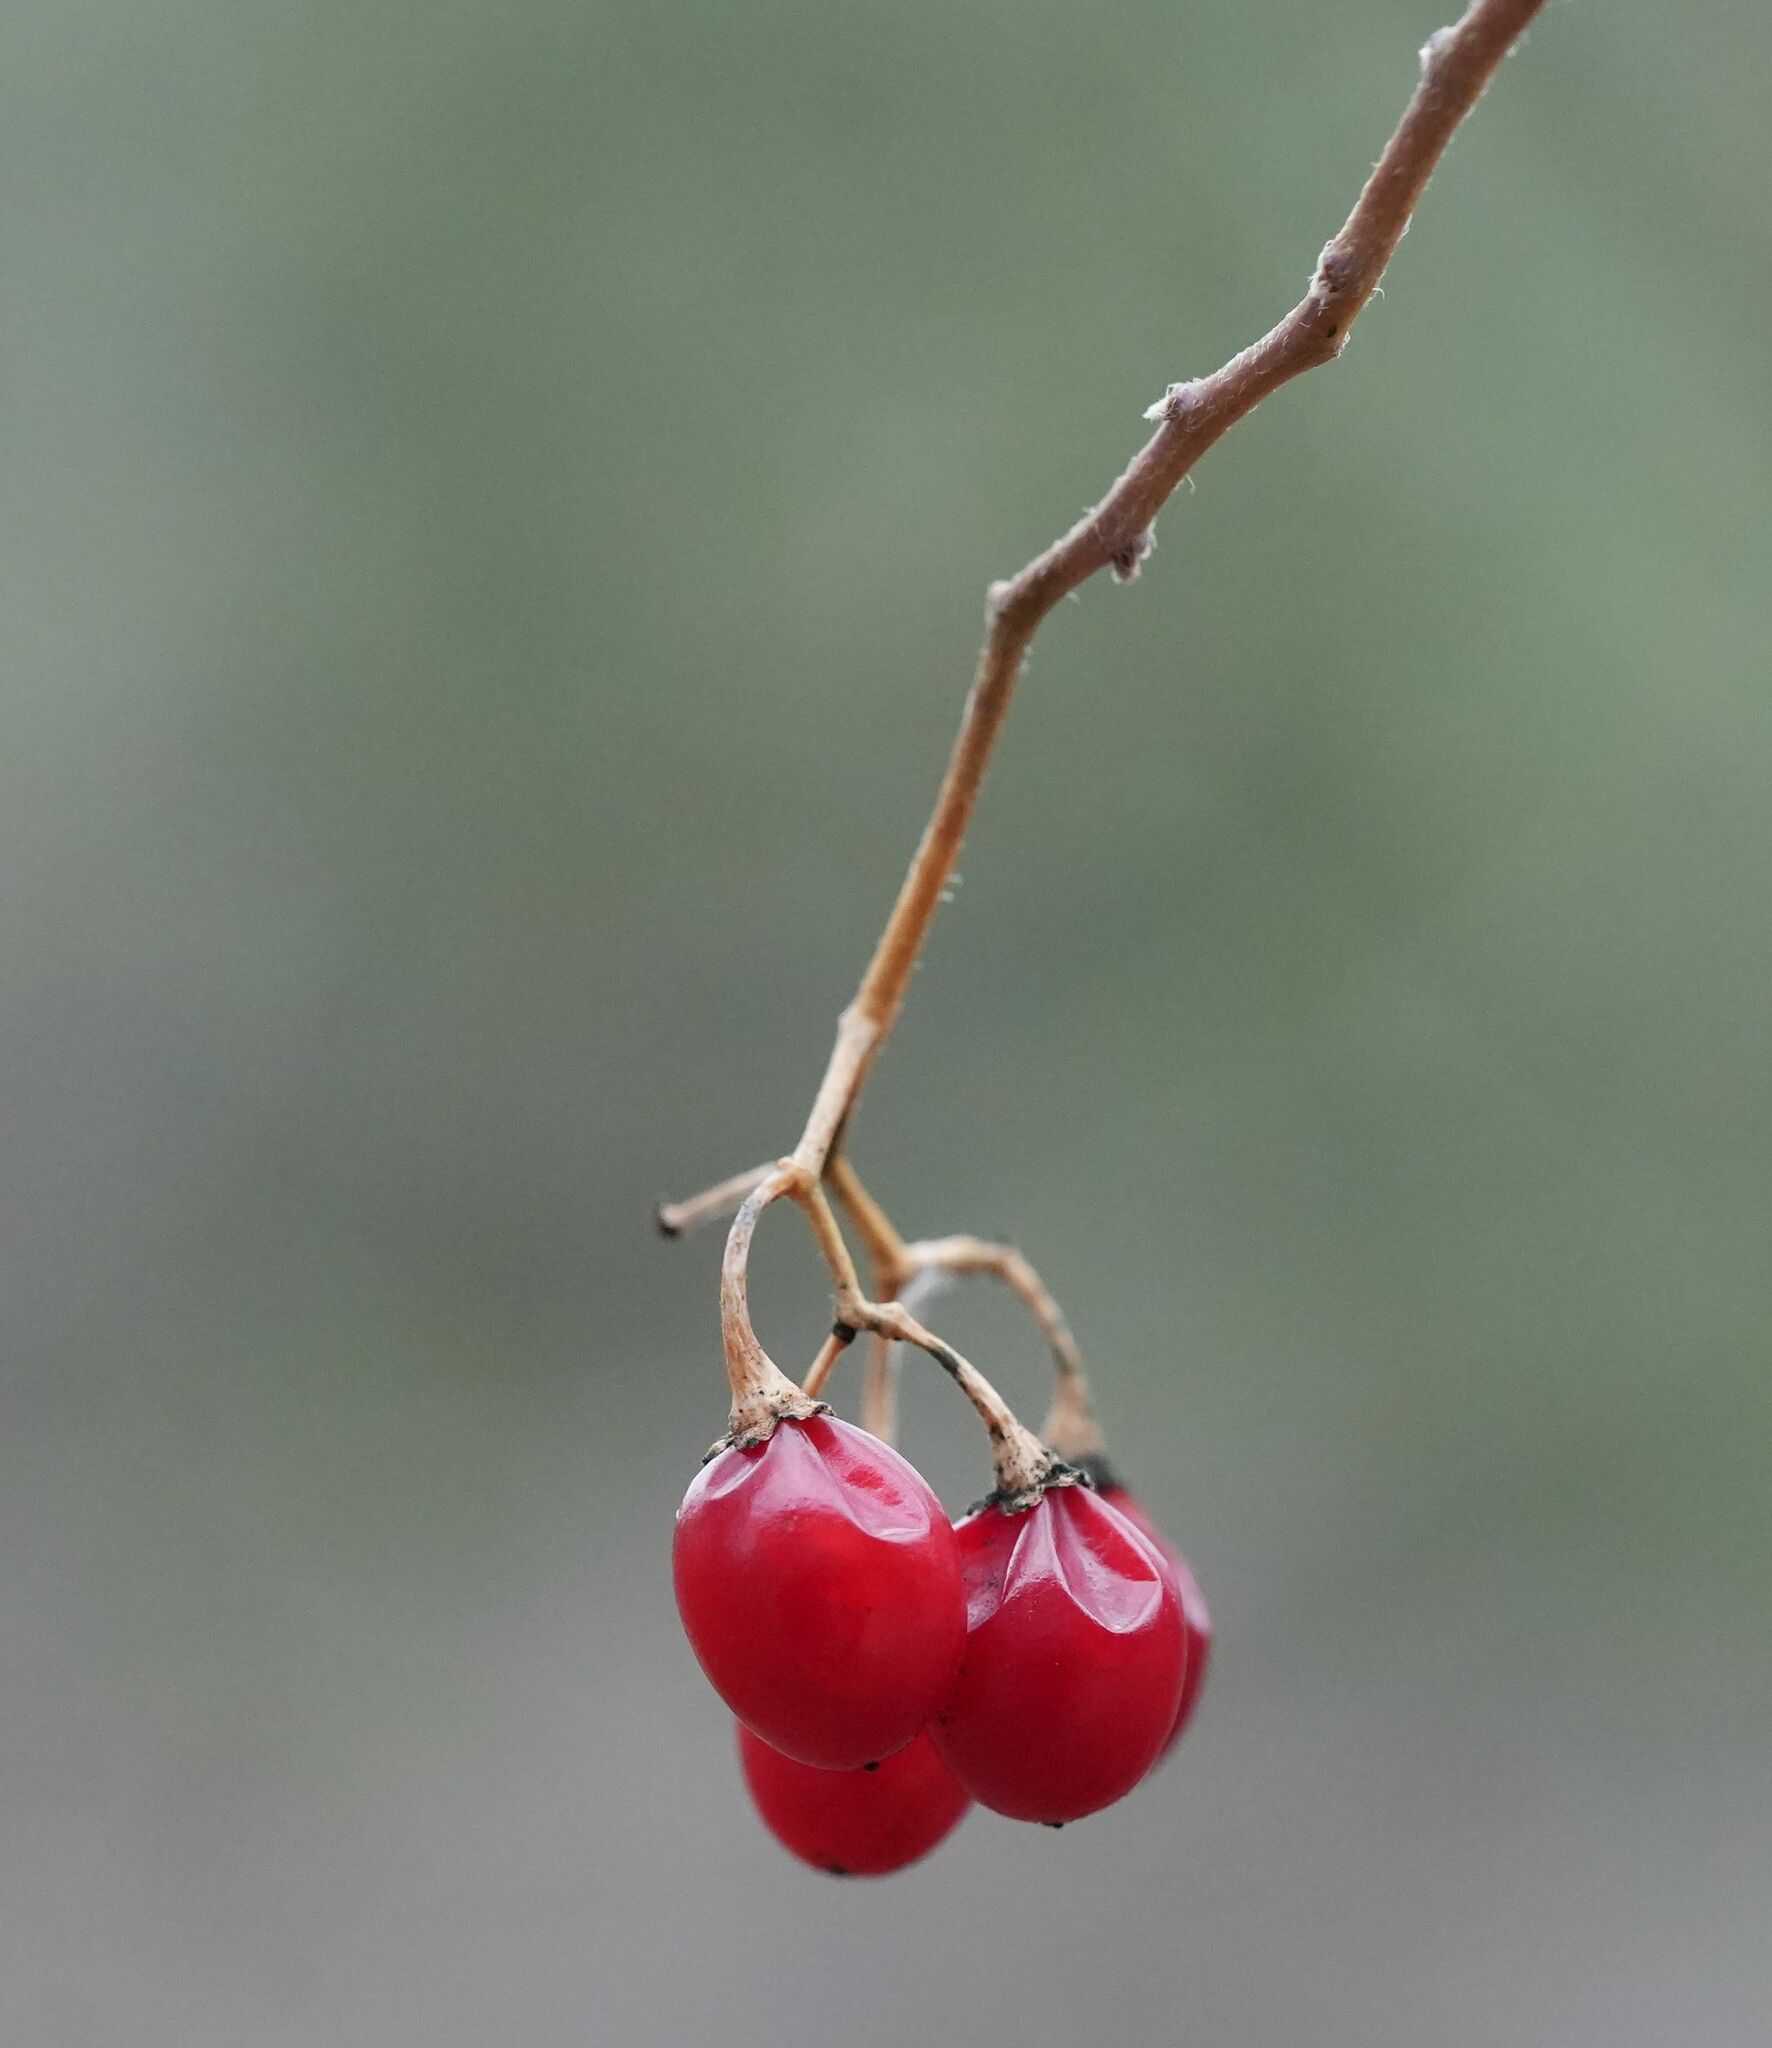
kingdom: Plantae
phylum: Tracheophyta
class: Magnoliopsida
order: Solanales
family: Solanaceae
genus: Solanum
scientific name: Solanum dulcamara
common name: Climbing nightshade
